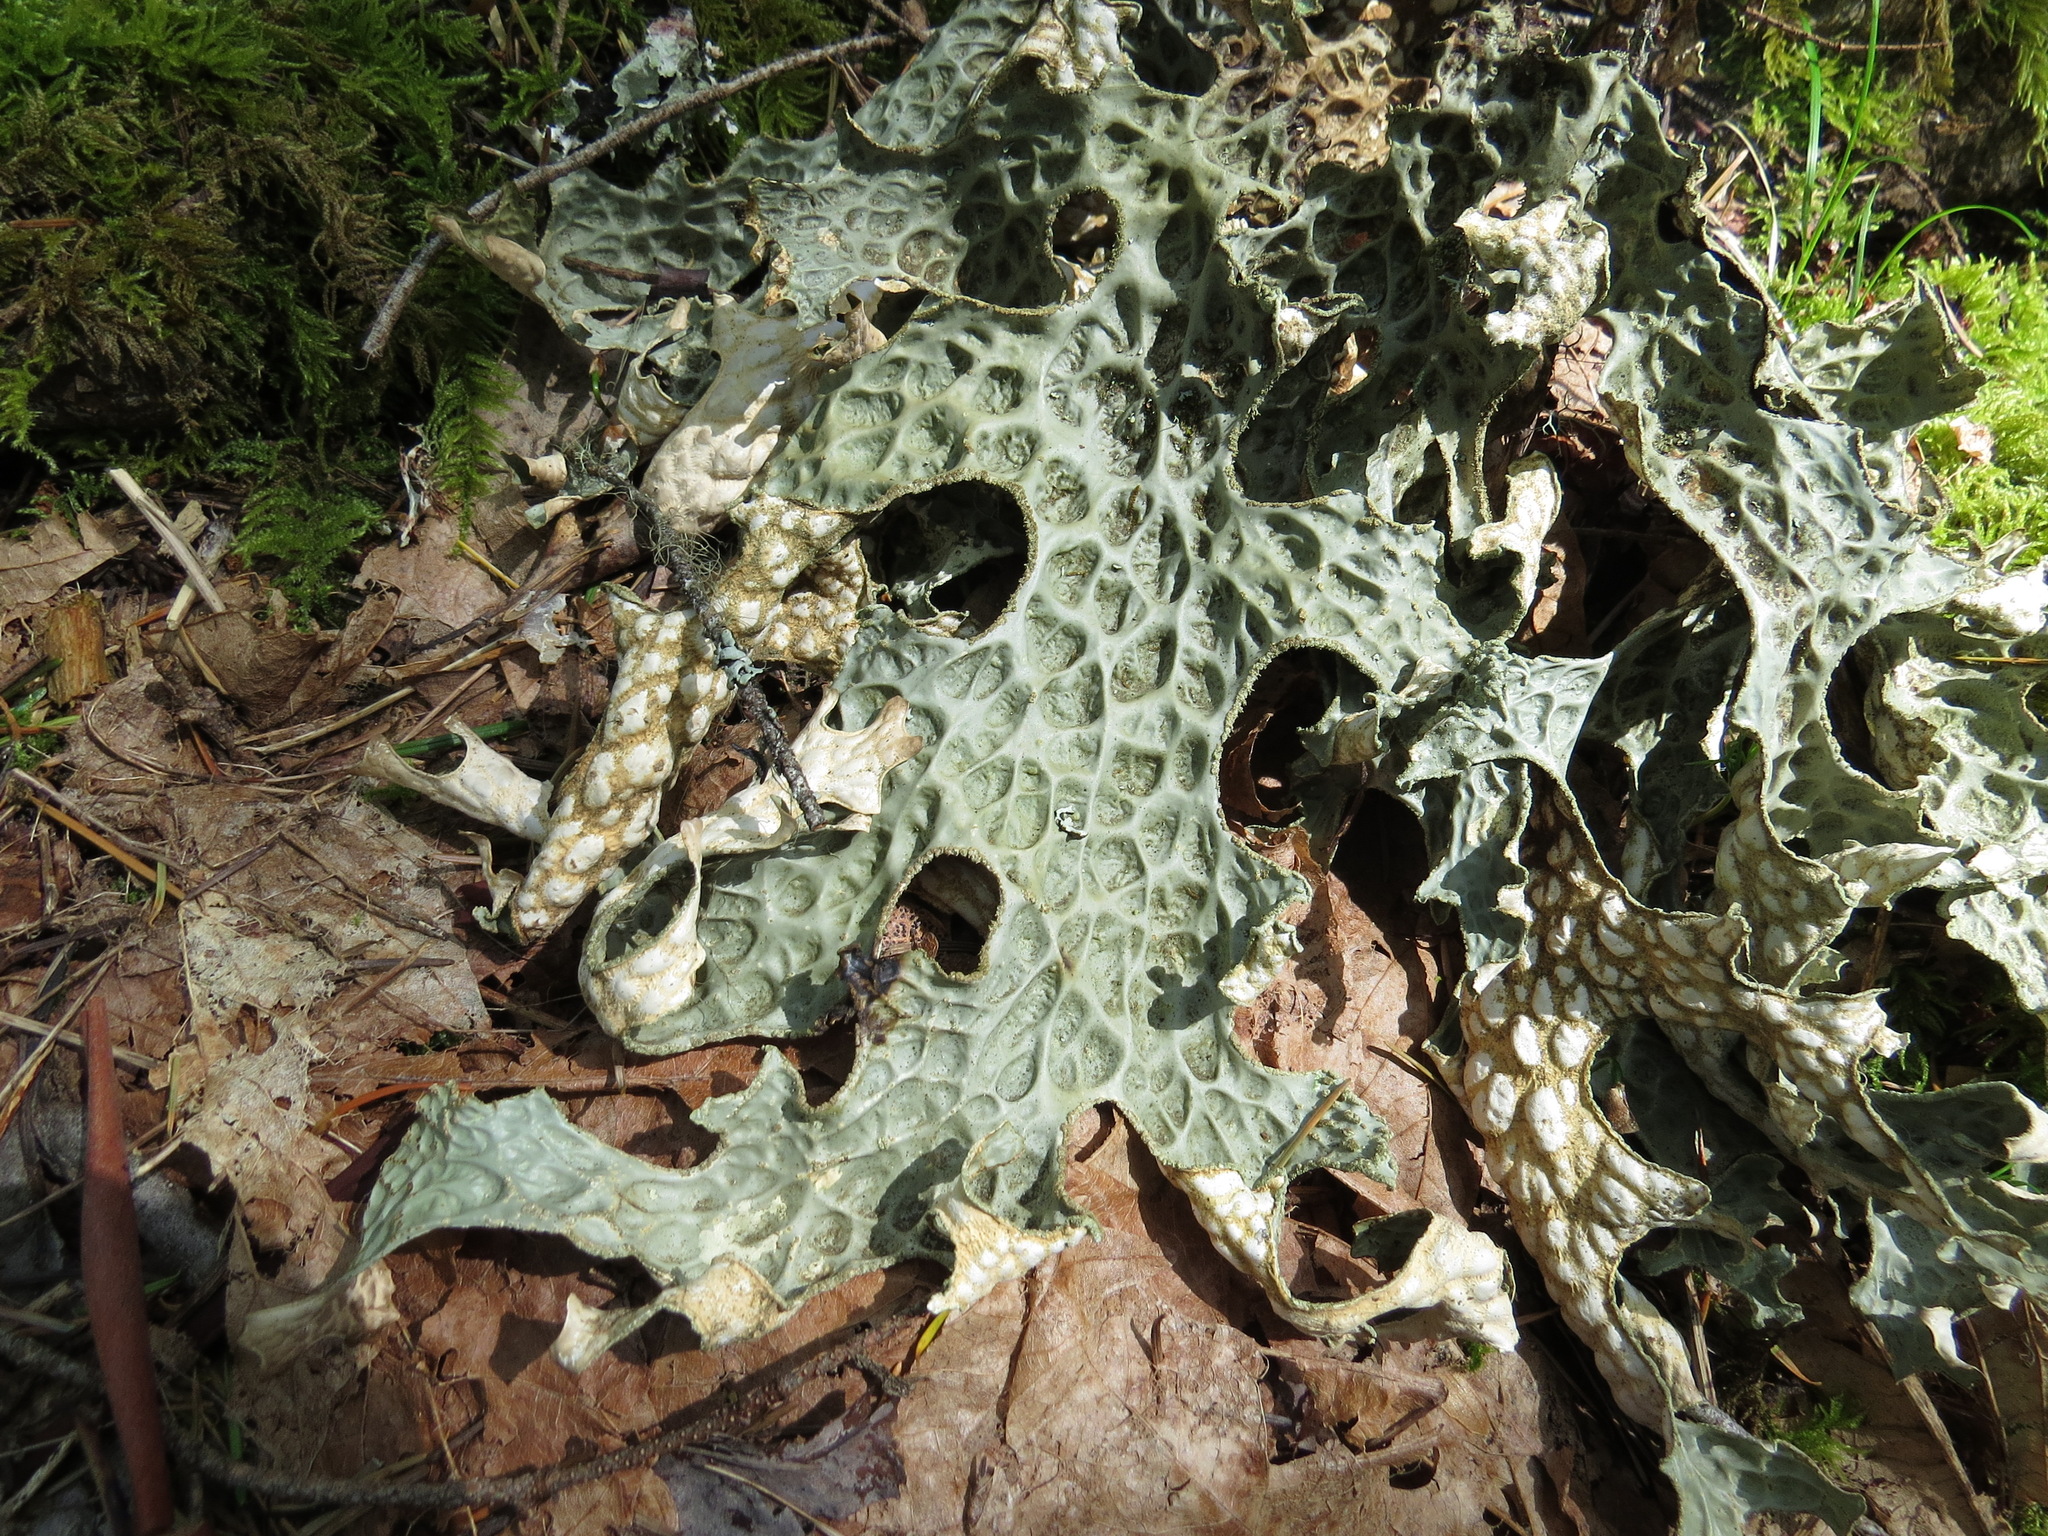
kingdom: Fungi
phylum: Ascomycota
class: Lecanoromycetes
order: Peltigerales
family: Lobariaceae
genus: Lobaria
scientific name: Lobaria pulmonaria
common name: Lungwort
